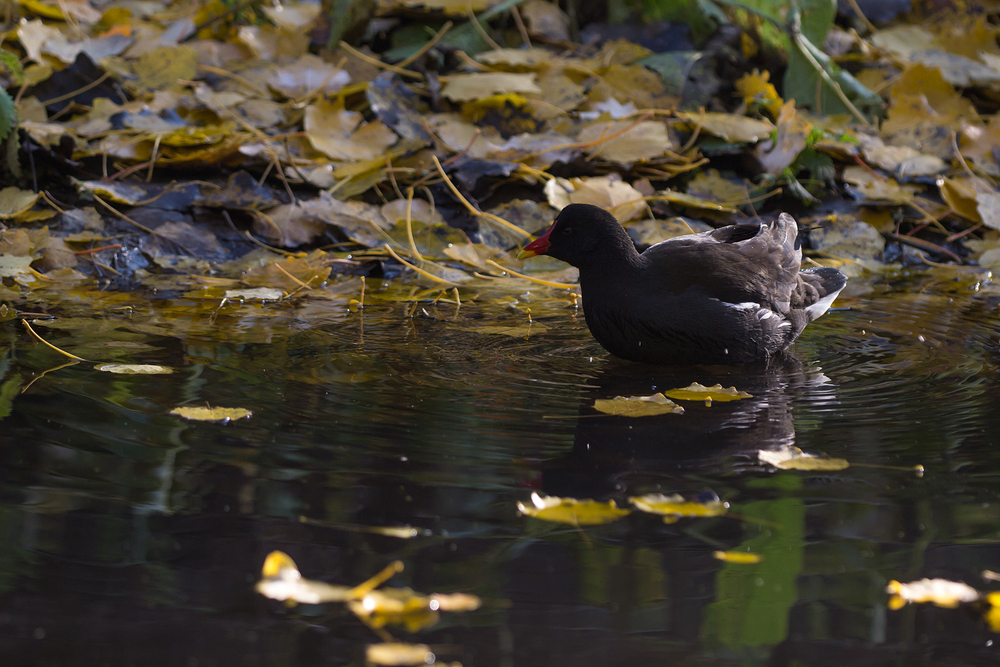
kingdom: Animalia
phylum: Chordata
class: Aves
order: Gruiformes
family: Rallidae
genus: Gallinula
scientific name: Gallinula chloropus
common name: Common moorhen
